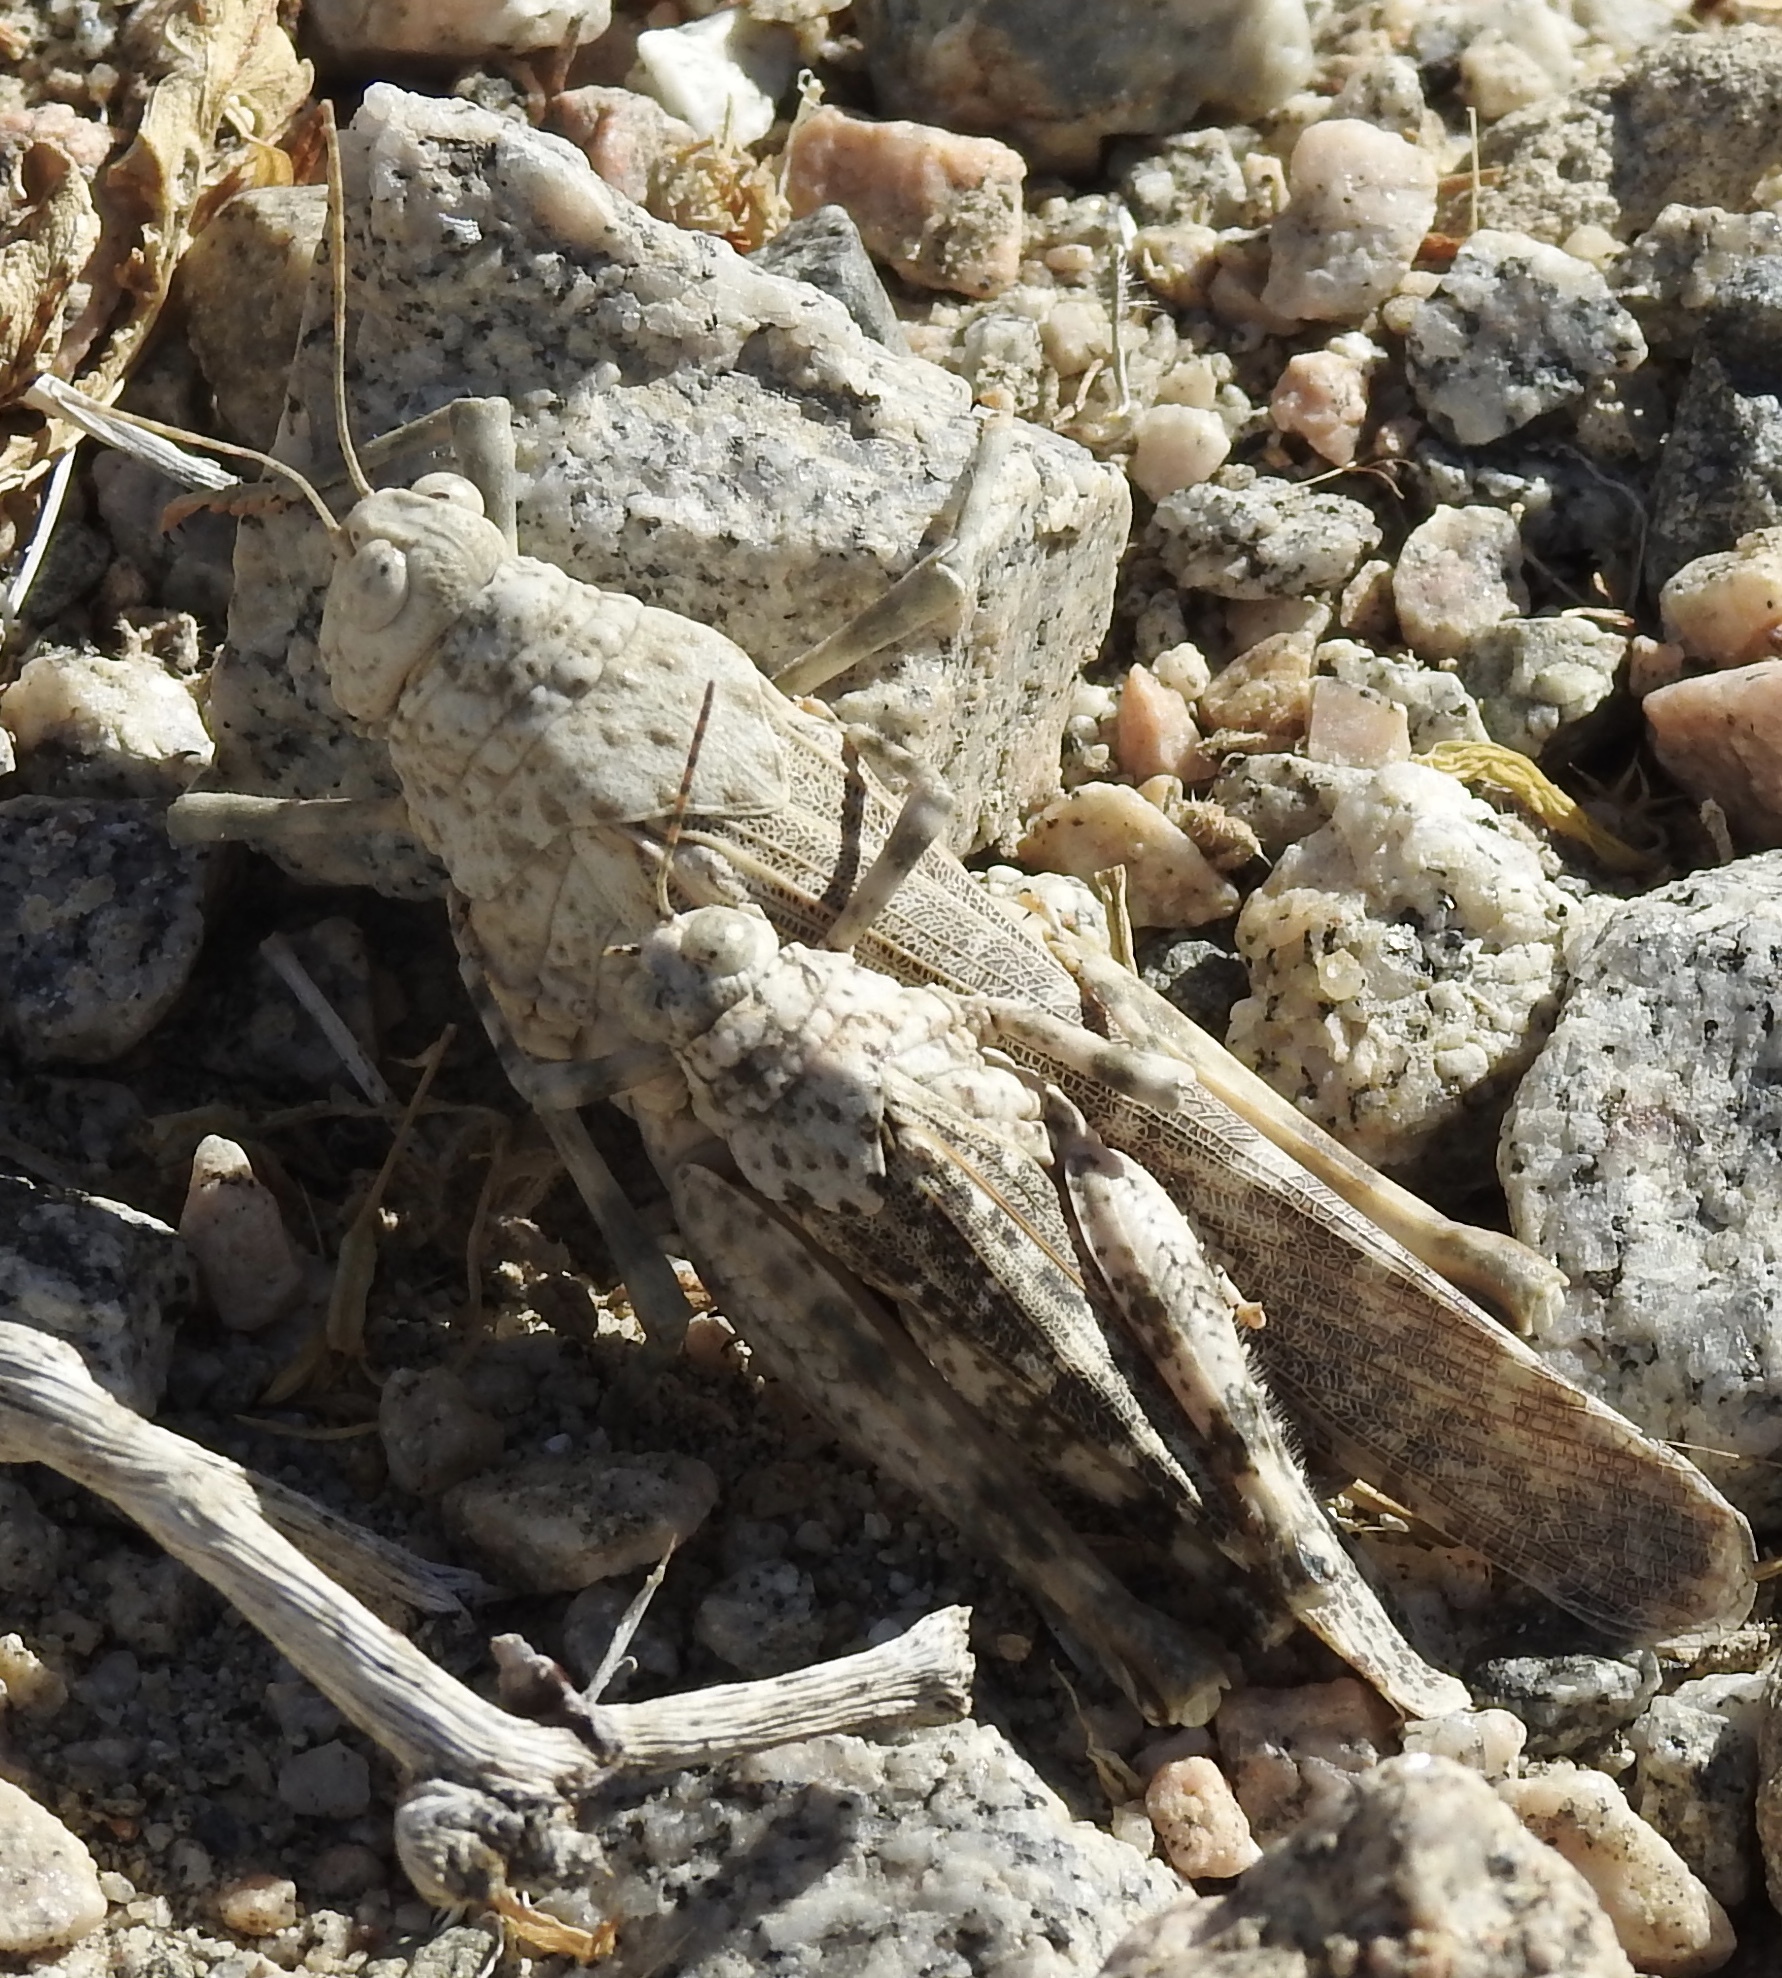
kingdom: Animalia
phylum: Arthropoda
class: Insecta
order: Orthoptera
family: Romaleidae
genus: Tytthotyle
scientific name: Tytthotyle maculata
